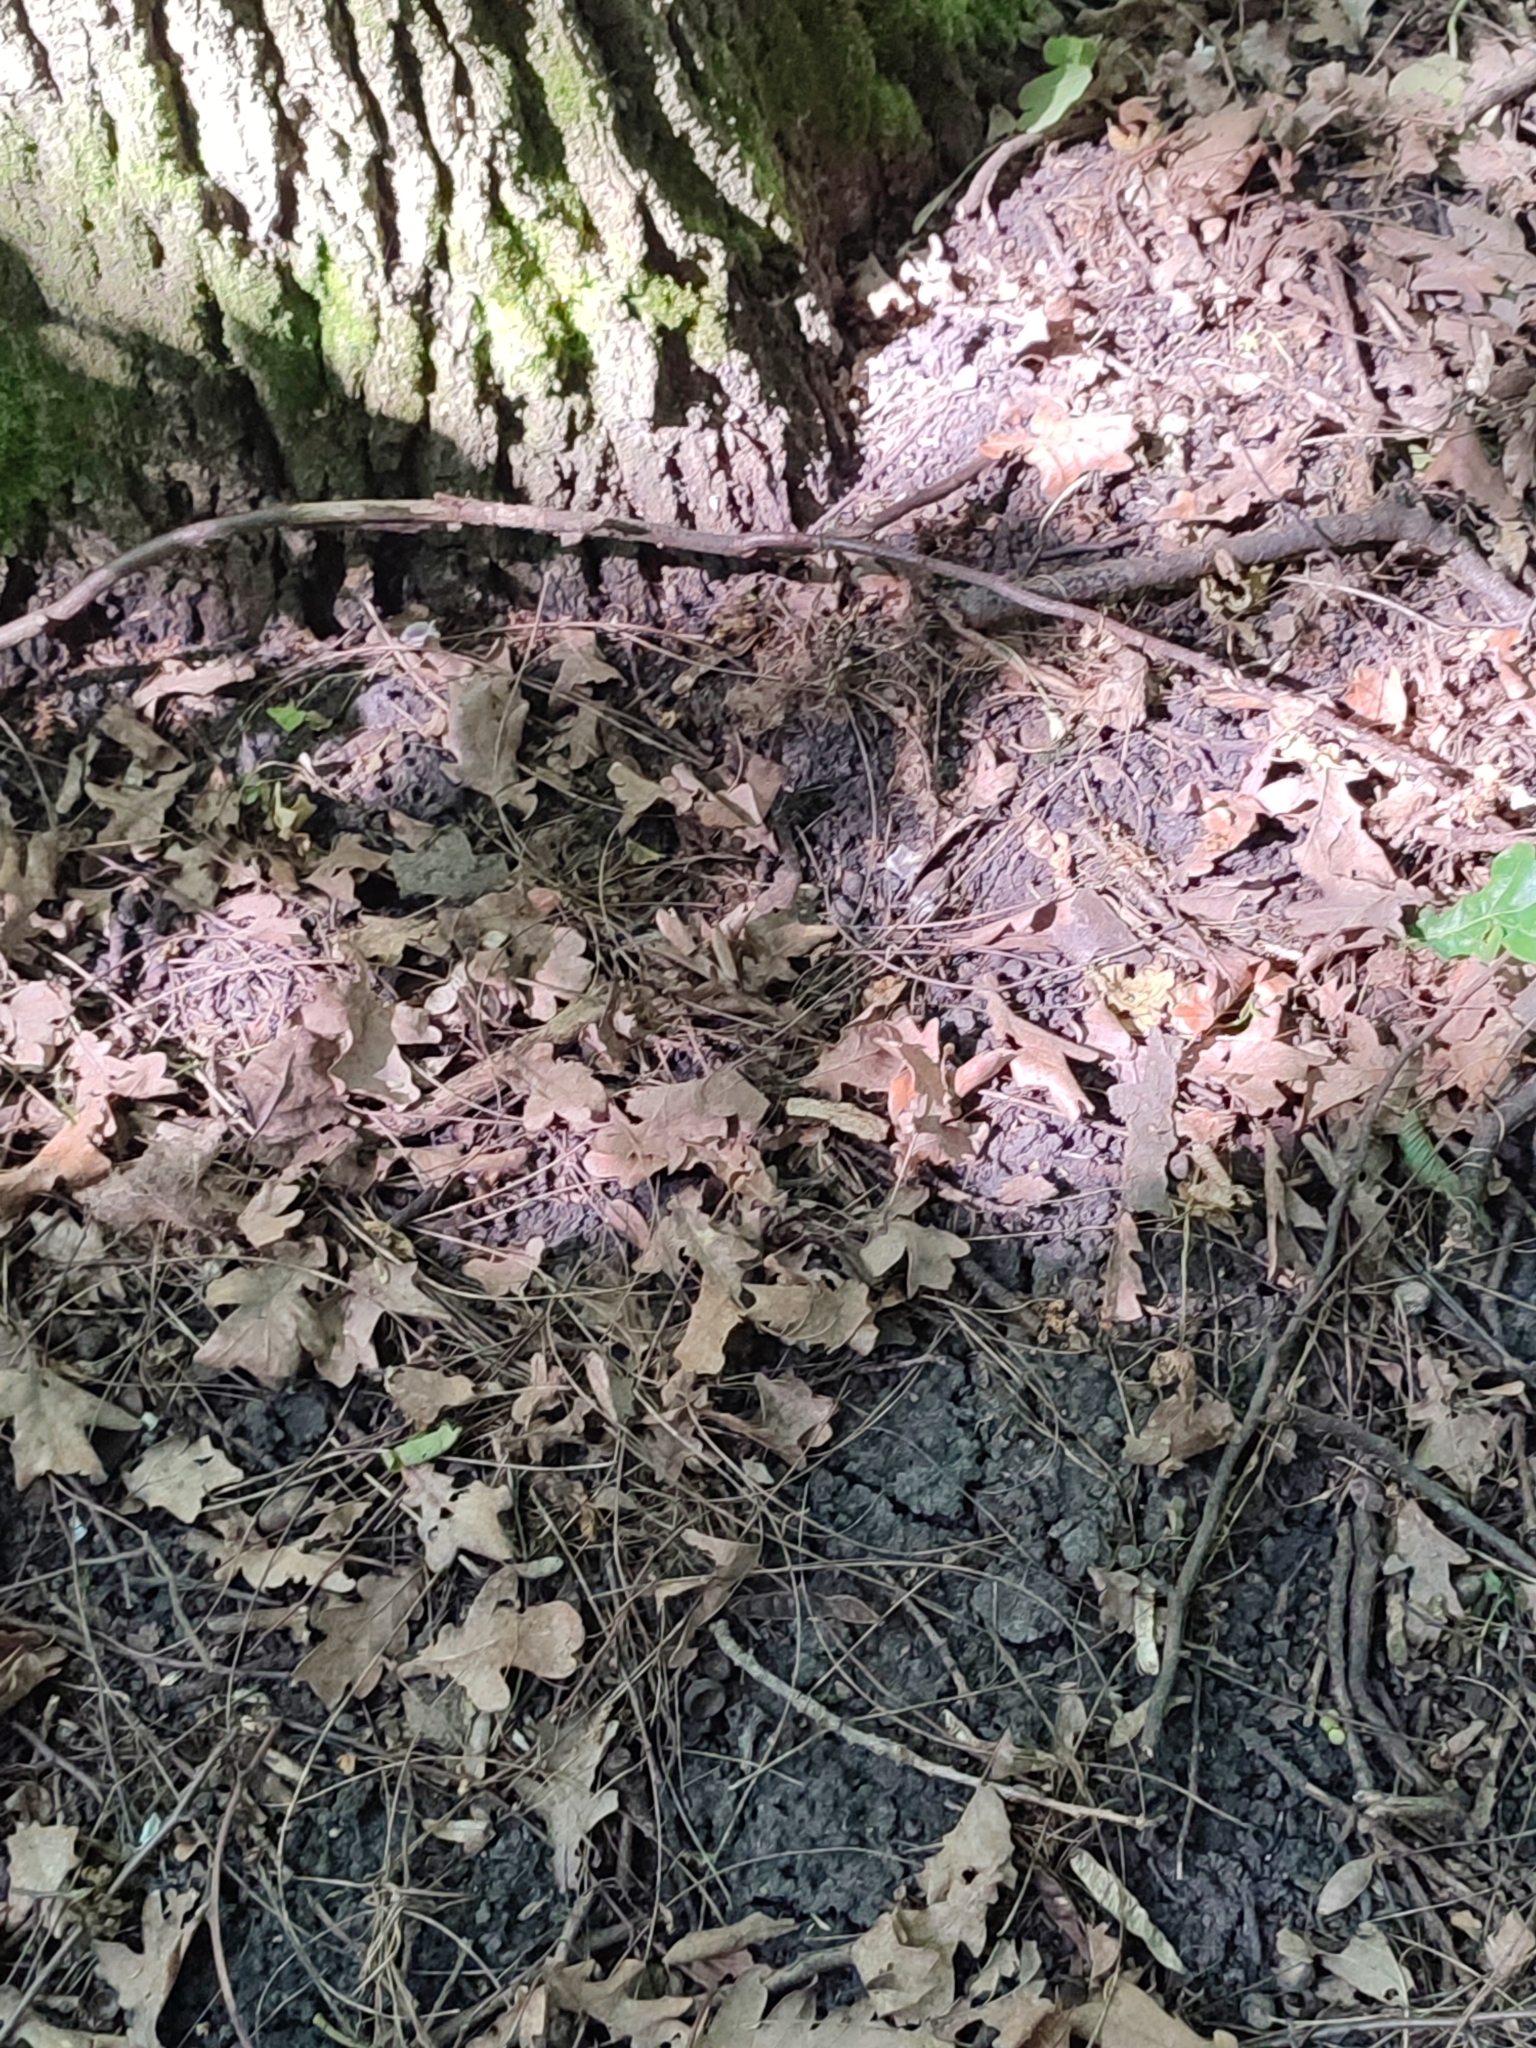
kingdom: Plantae
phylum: Tracheophyta
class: Magnoliopsida
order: Fagales
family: Fagaceae
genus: Quercus
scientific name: Quercus robur
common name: Pedunculate oak
